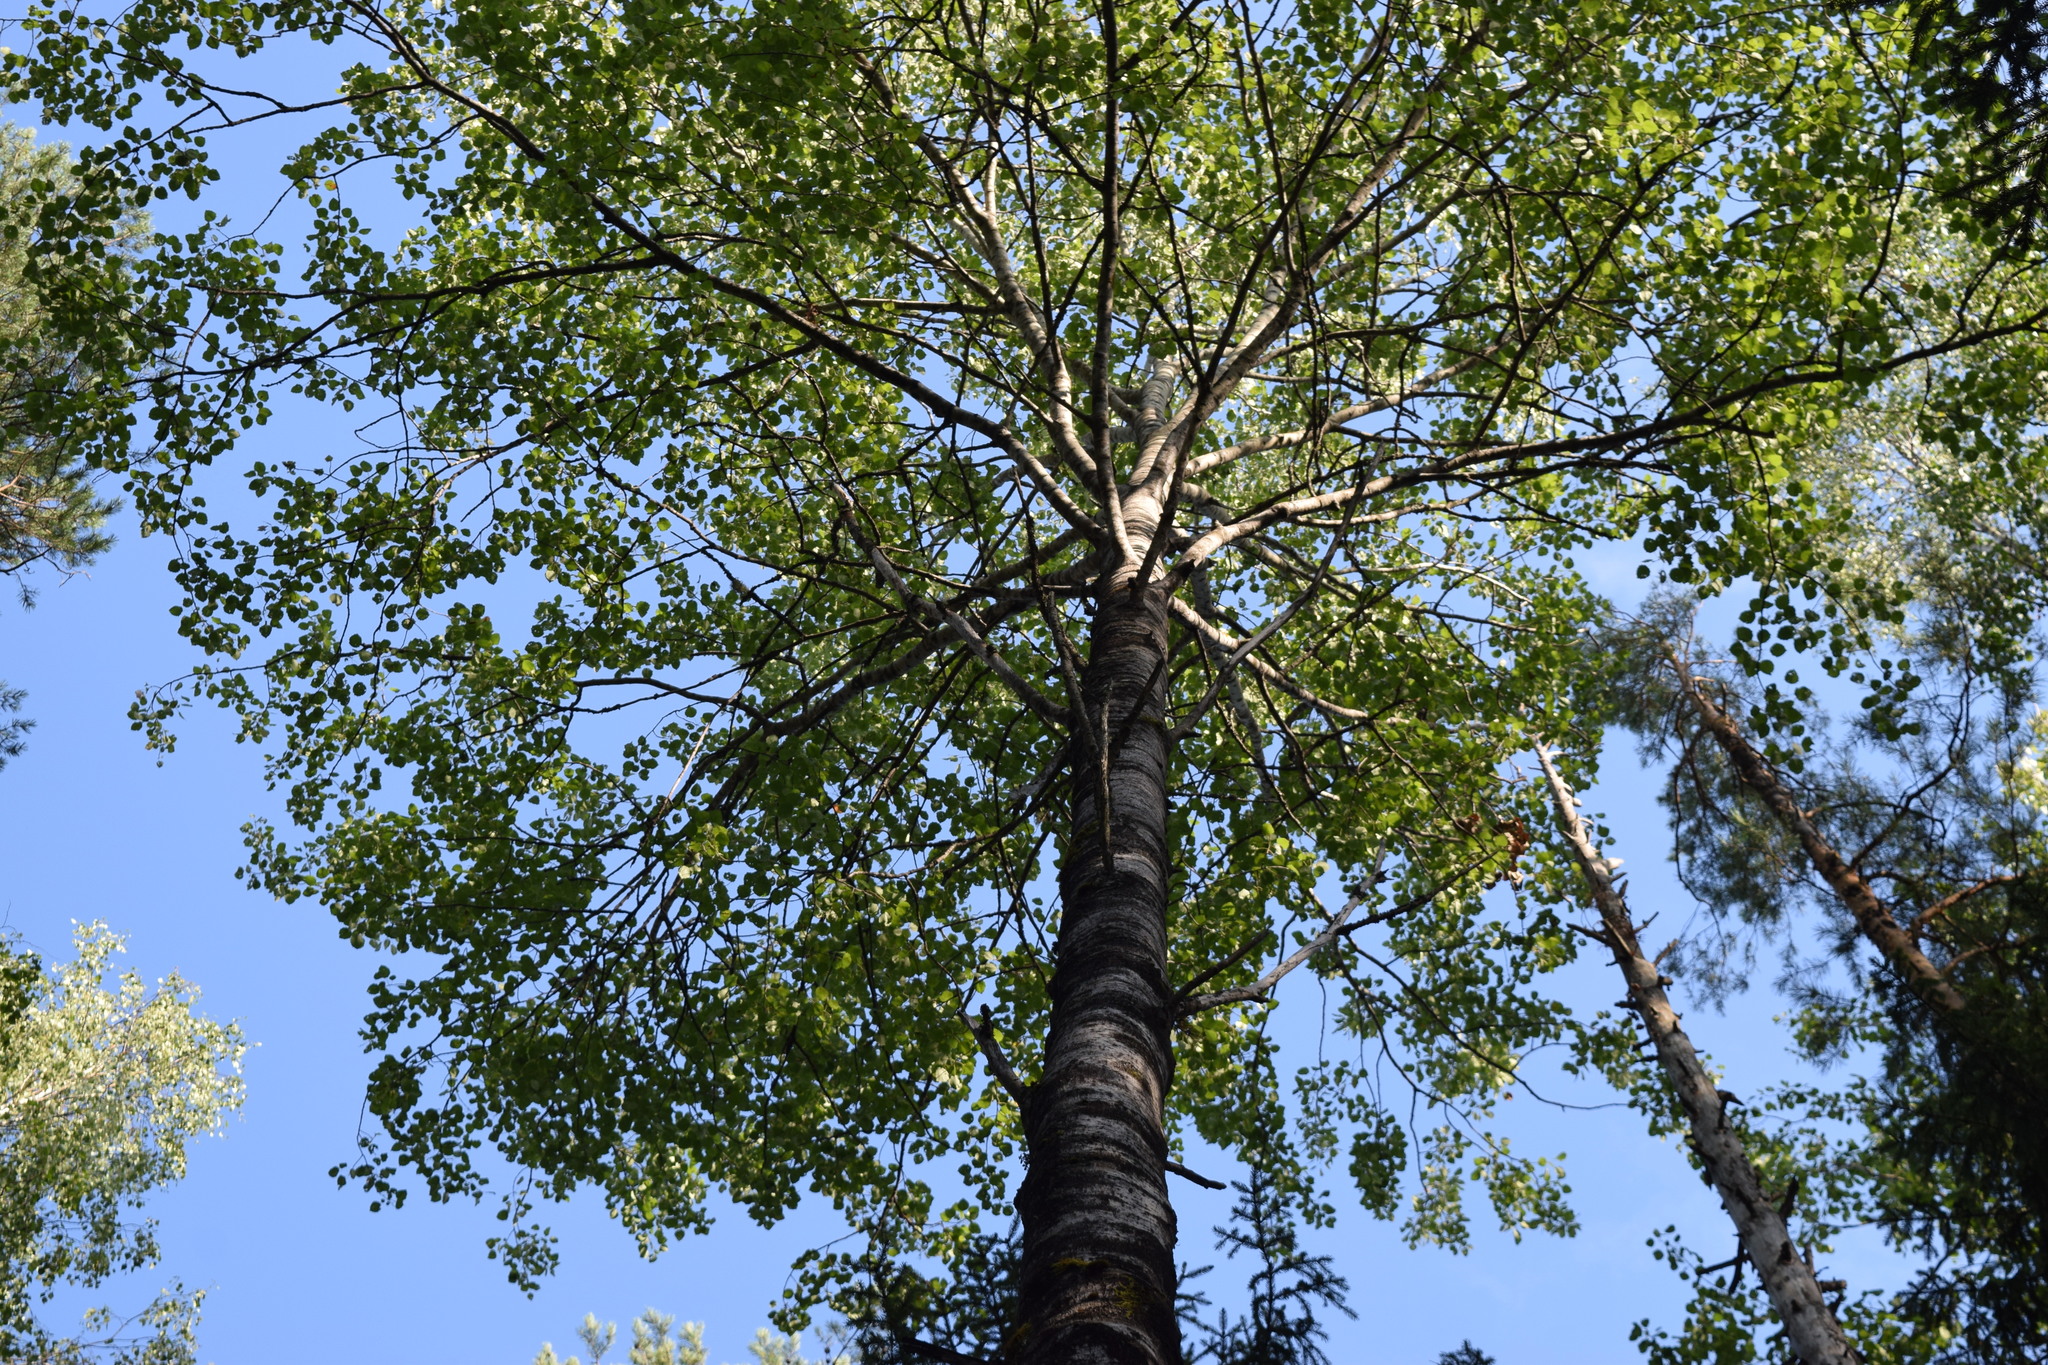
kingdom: Plantae
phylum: Tracheophyta
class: Magnoliopsida
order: Malpighiales
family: Salicaceae
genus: Populus
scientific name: Populus tremula
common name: European aspen
